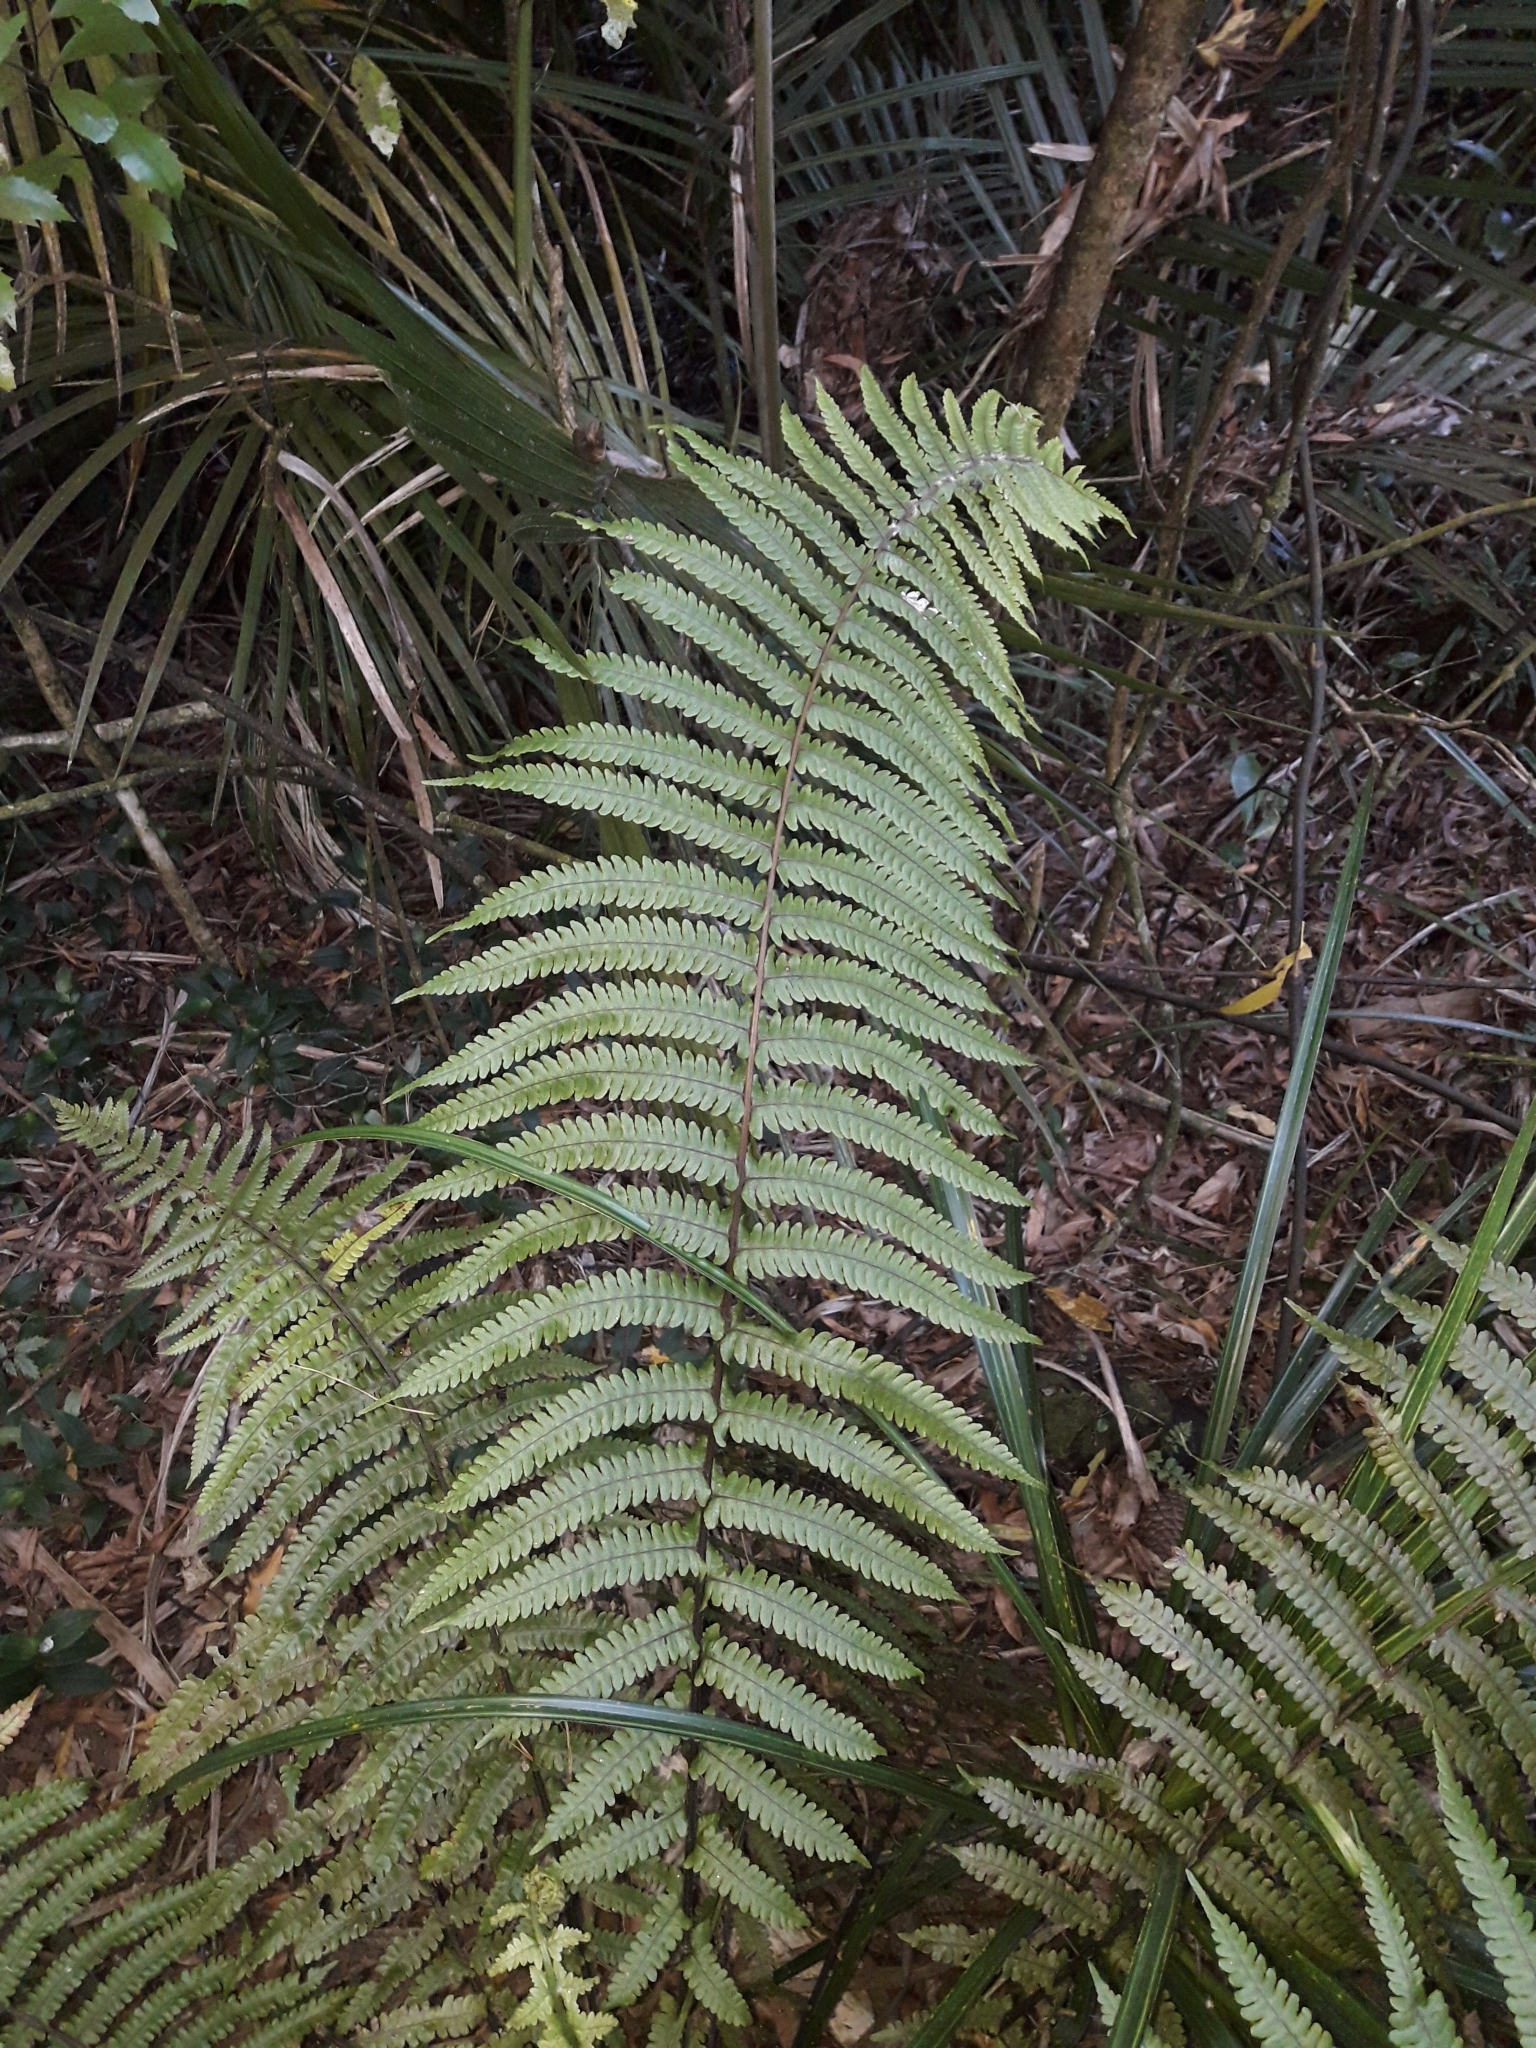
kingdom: Plantae
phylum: Tracheophyta
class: Polypodiopsida
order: Polypodiales
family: Thelypteridaceae
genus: Pakau
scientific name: Pakau pennigera
